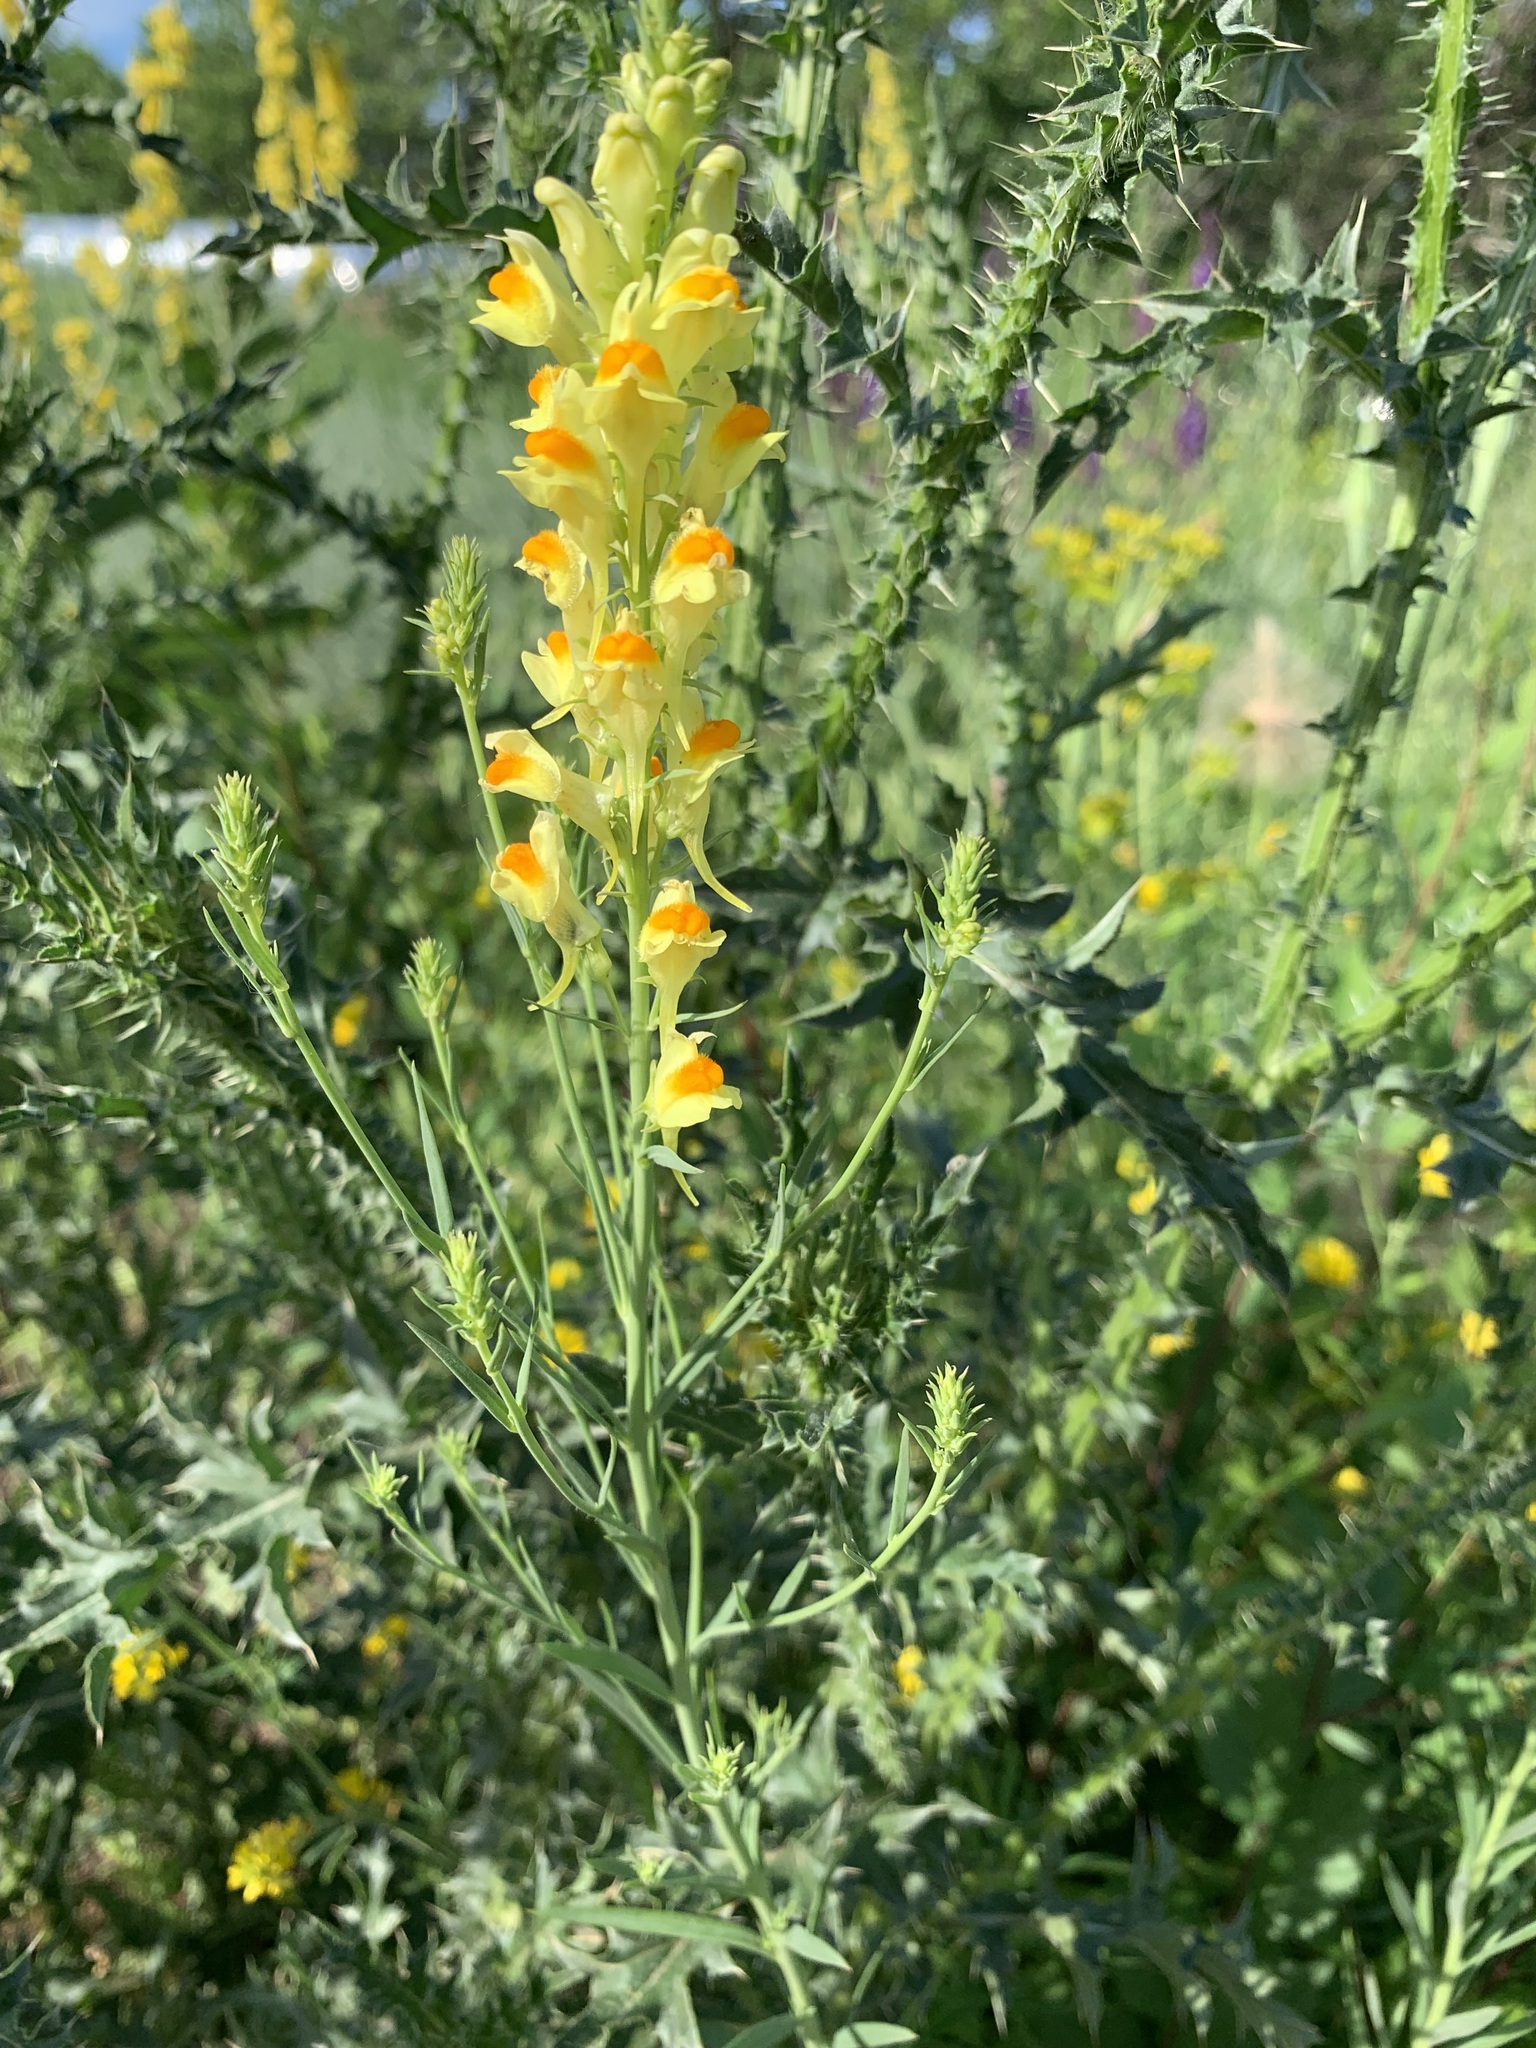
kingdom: Plantae
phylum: Tracheophyta
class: Magnoliopsida
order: Lamiales
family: Plantaginaceae
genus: Linaria
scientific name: Linaria vulgaris
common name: Butter and eggs
